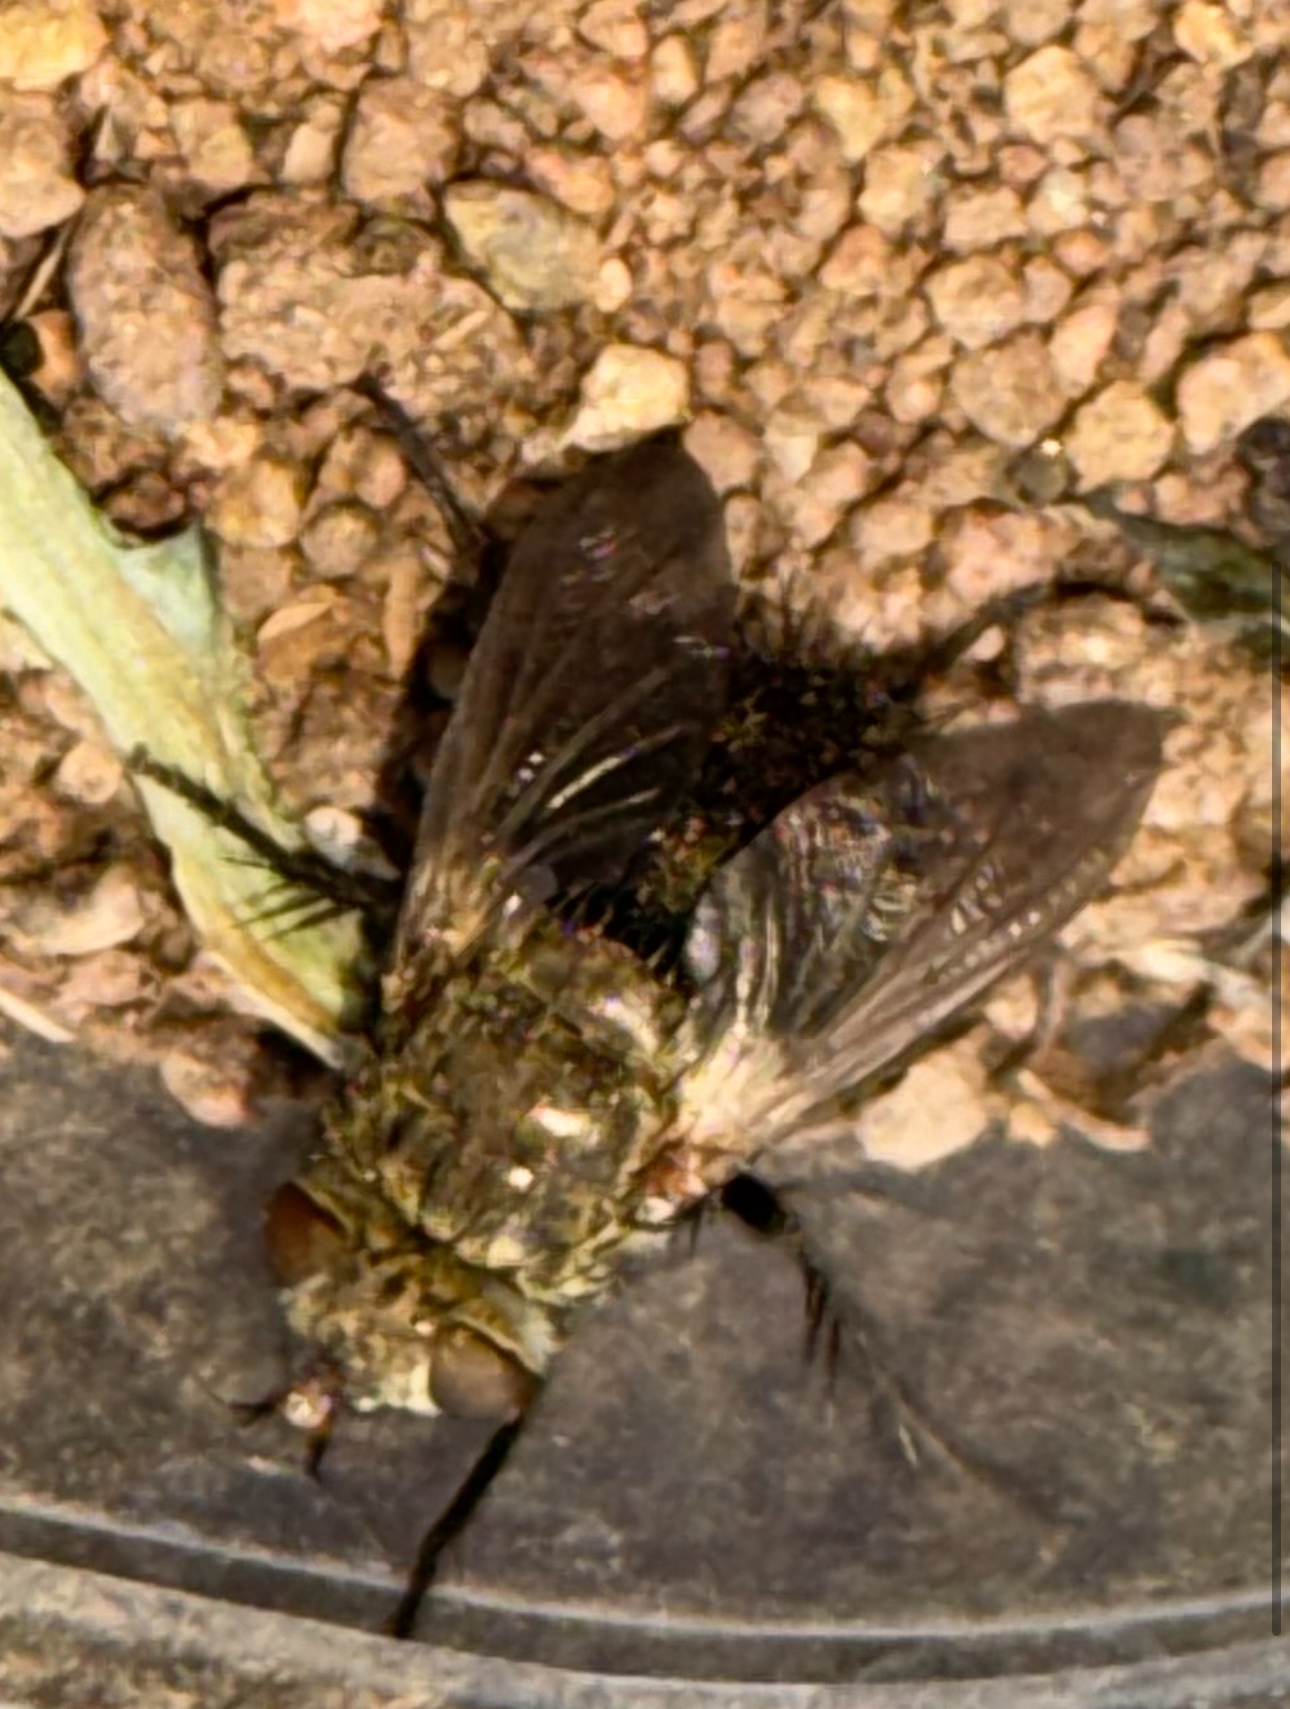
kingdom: Animalia
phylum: Arthropoda
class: Insecta
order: Diptera
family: Tachinidae
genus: Archytas
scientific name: Archytas apicifer
